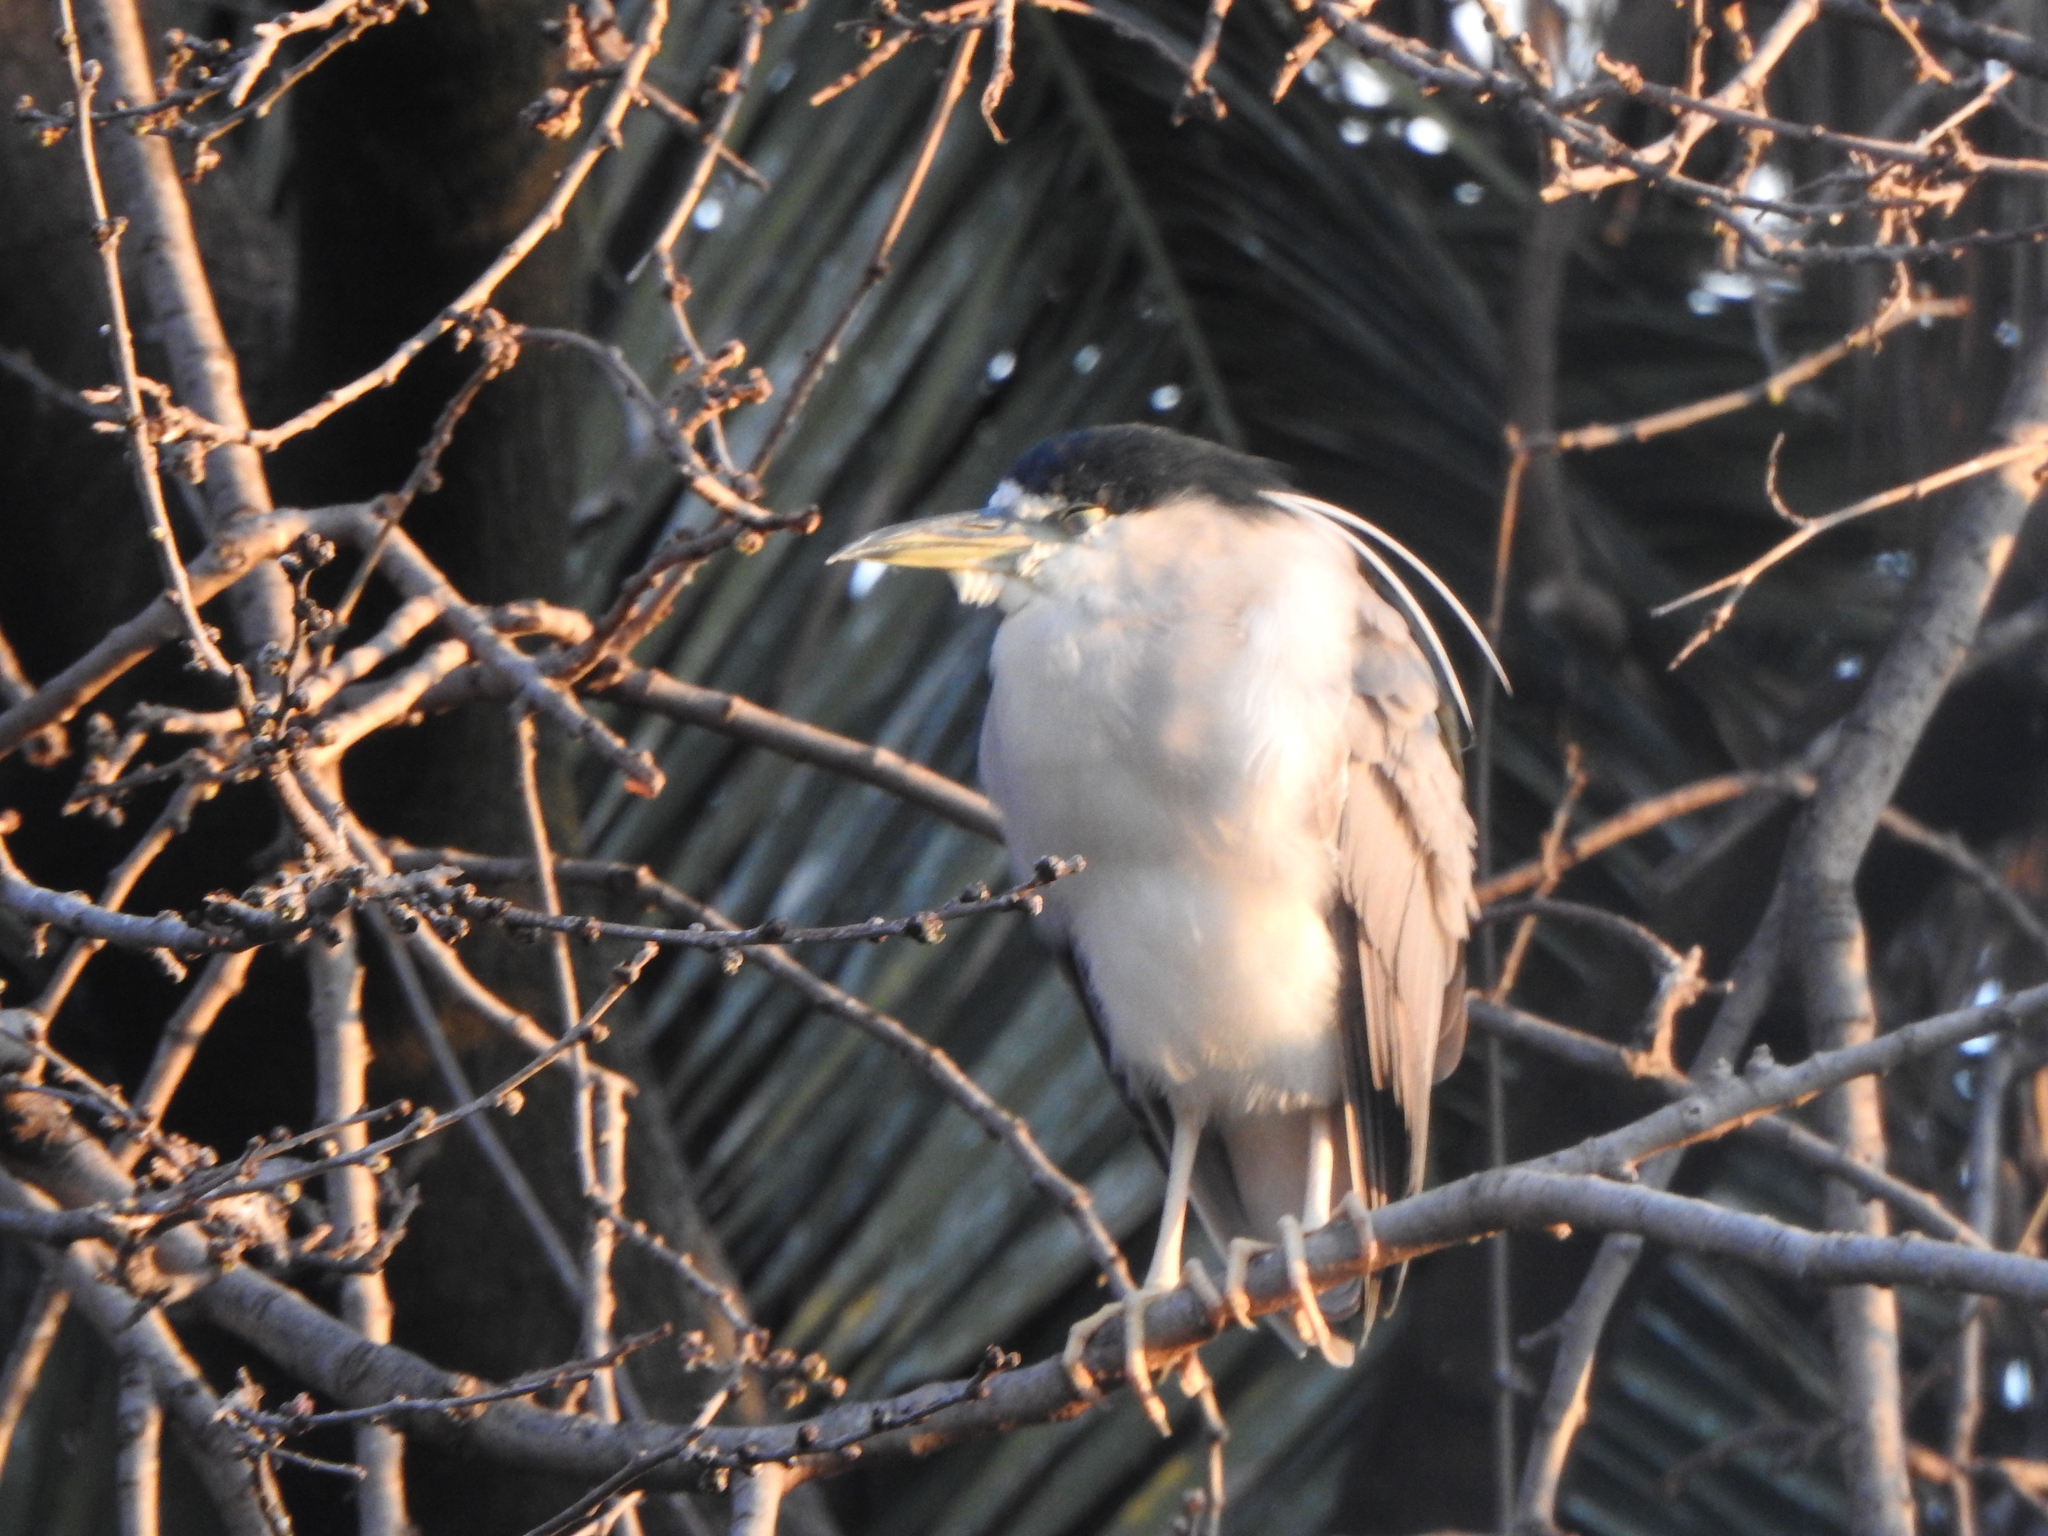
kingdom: Animalia
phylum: Chordata
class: Aves
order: Pelecaniformes
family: Ardeidae
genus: Nycticorax
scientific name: Nycticorax nycticorax
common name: Black-crowned night heron
